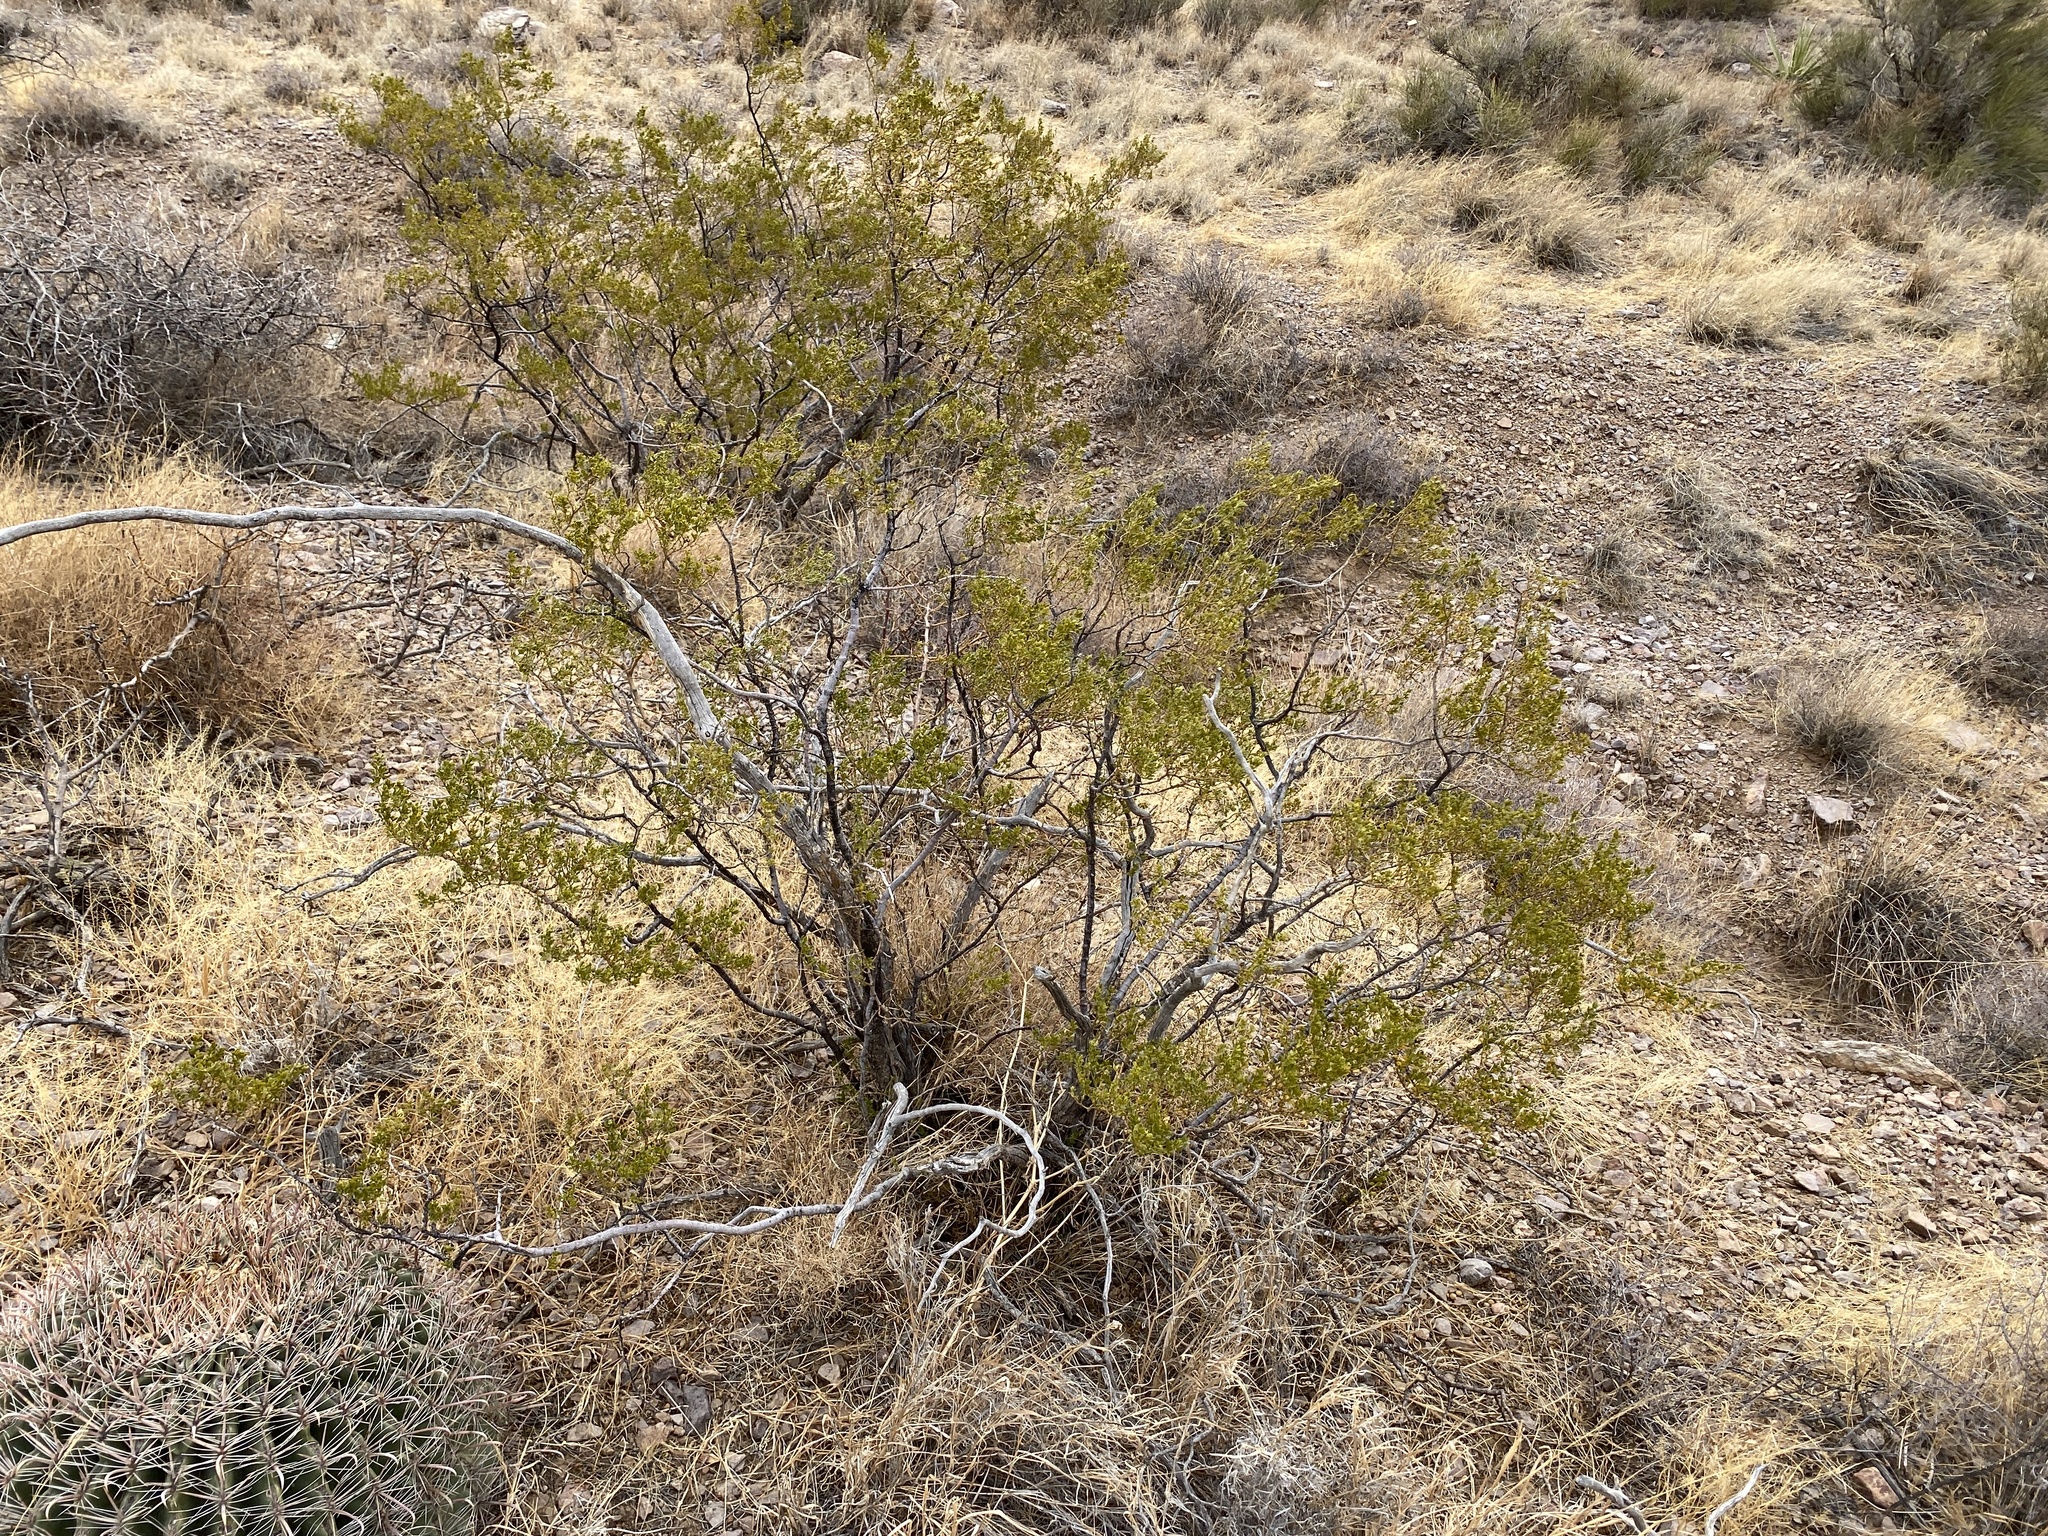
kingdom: Plantae
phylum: Tracheophyta
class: Magnoliopsida
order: Zygophyllales
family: Zygophyllaceae
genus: Larrea
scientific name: Larrea tridentata
